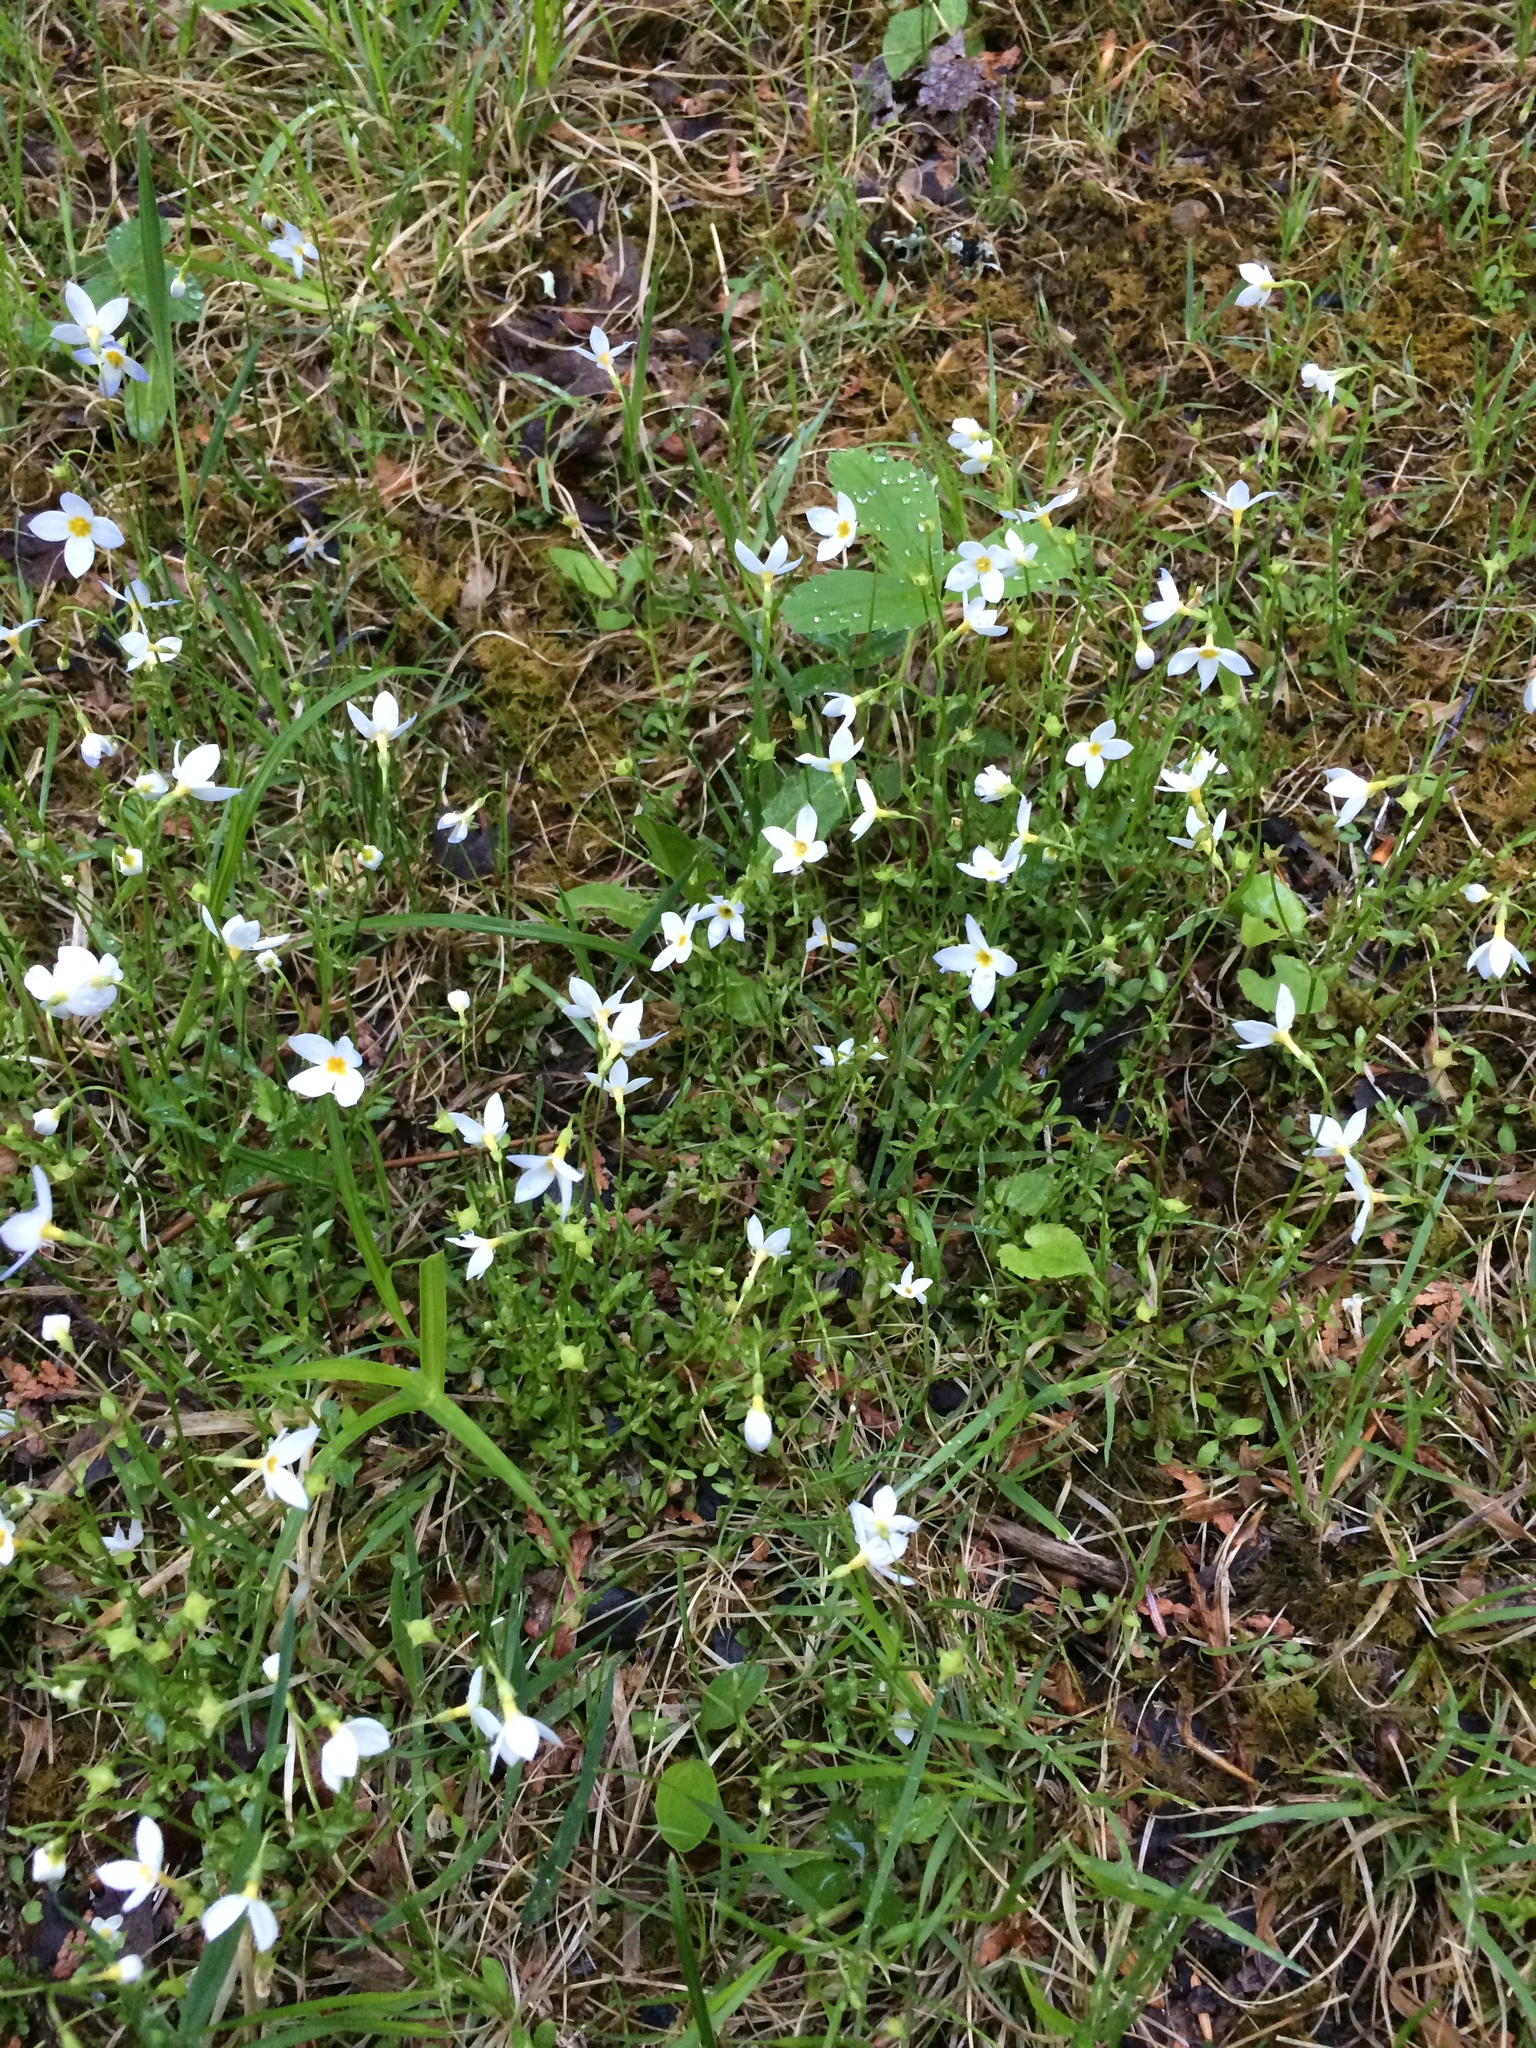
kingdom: Plantae
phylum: Tracheophyta
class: Magnoliopsida
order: Gentianales
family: Rubiaceae
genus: Houstonia
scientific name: Houstonia caerulea
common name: Bluets
